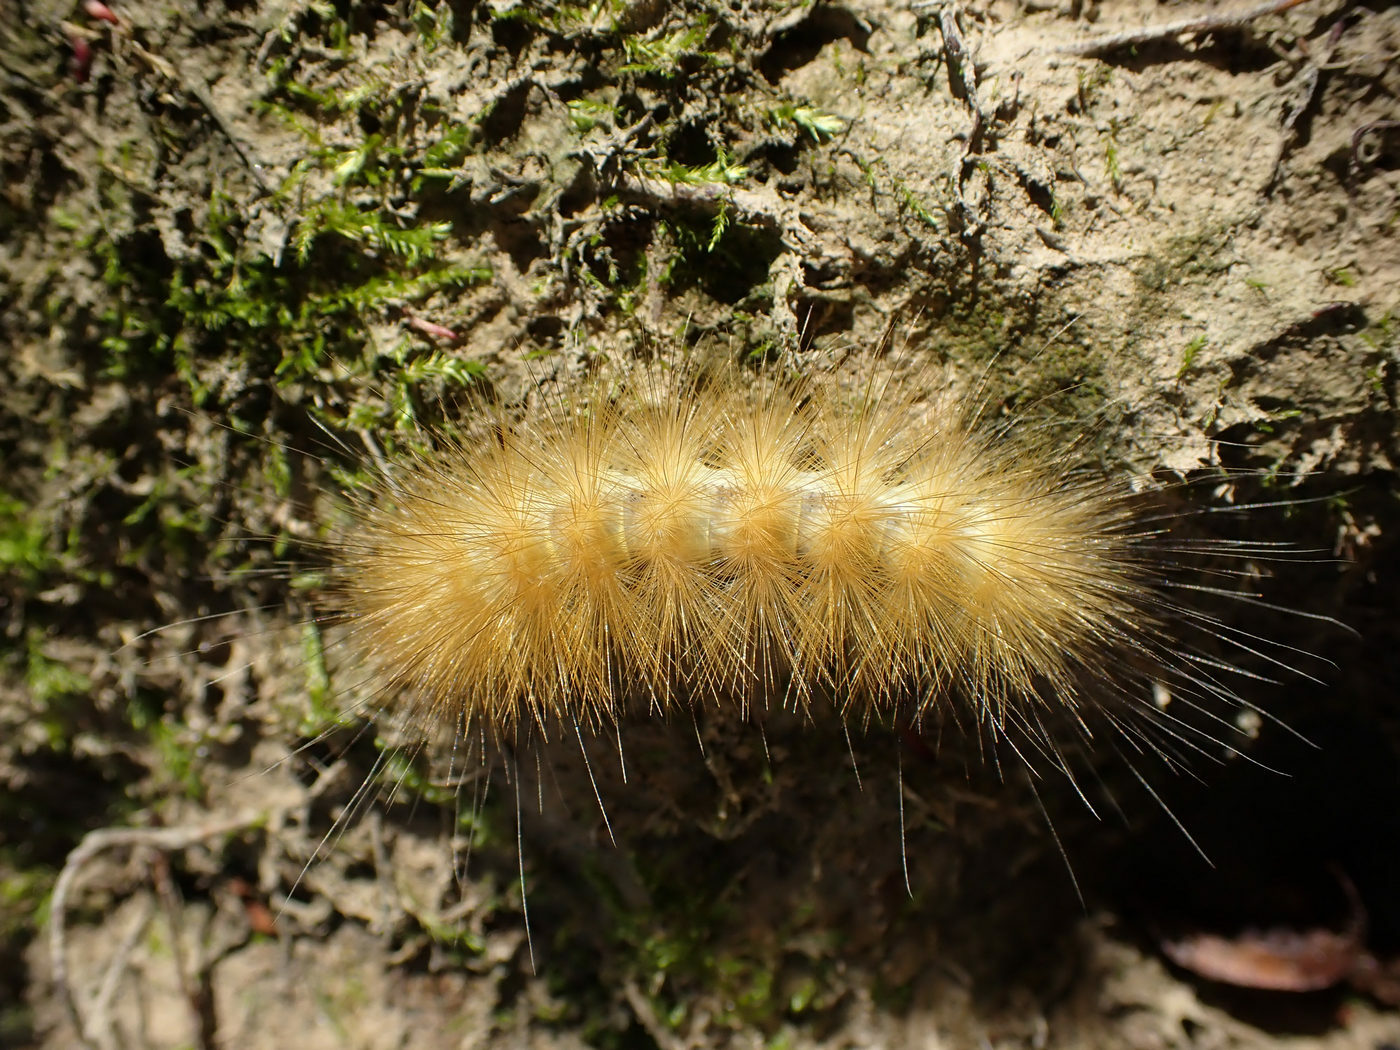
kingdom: Animalia
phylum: Arthropoda
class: Insecta
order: Lepidoptera
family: Erebidae
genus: Spilosoma
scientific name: Spilosoma virginica
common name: Virginia tiger moth
